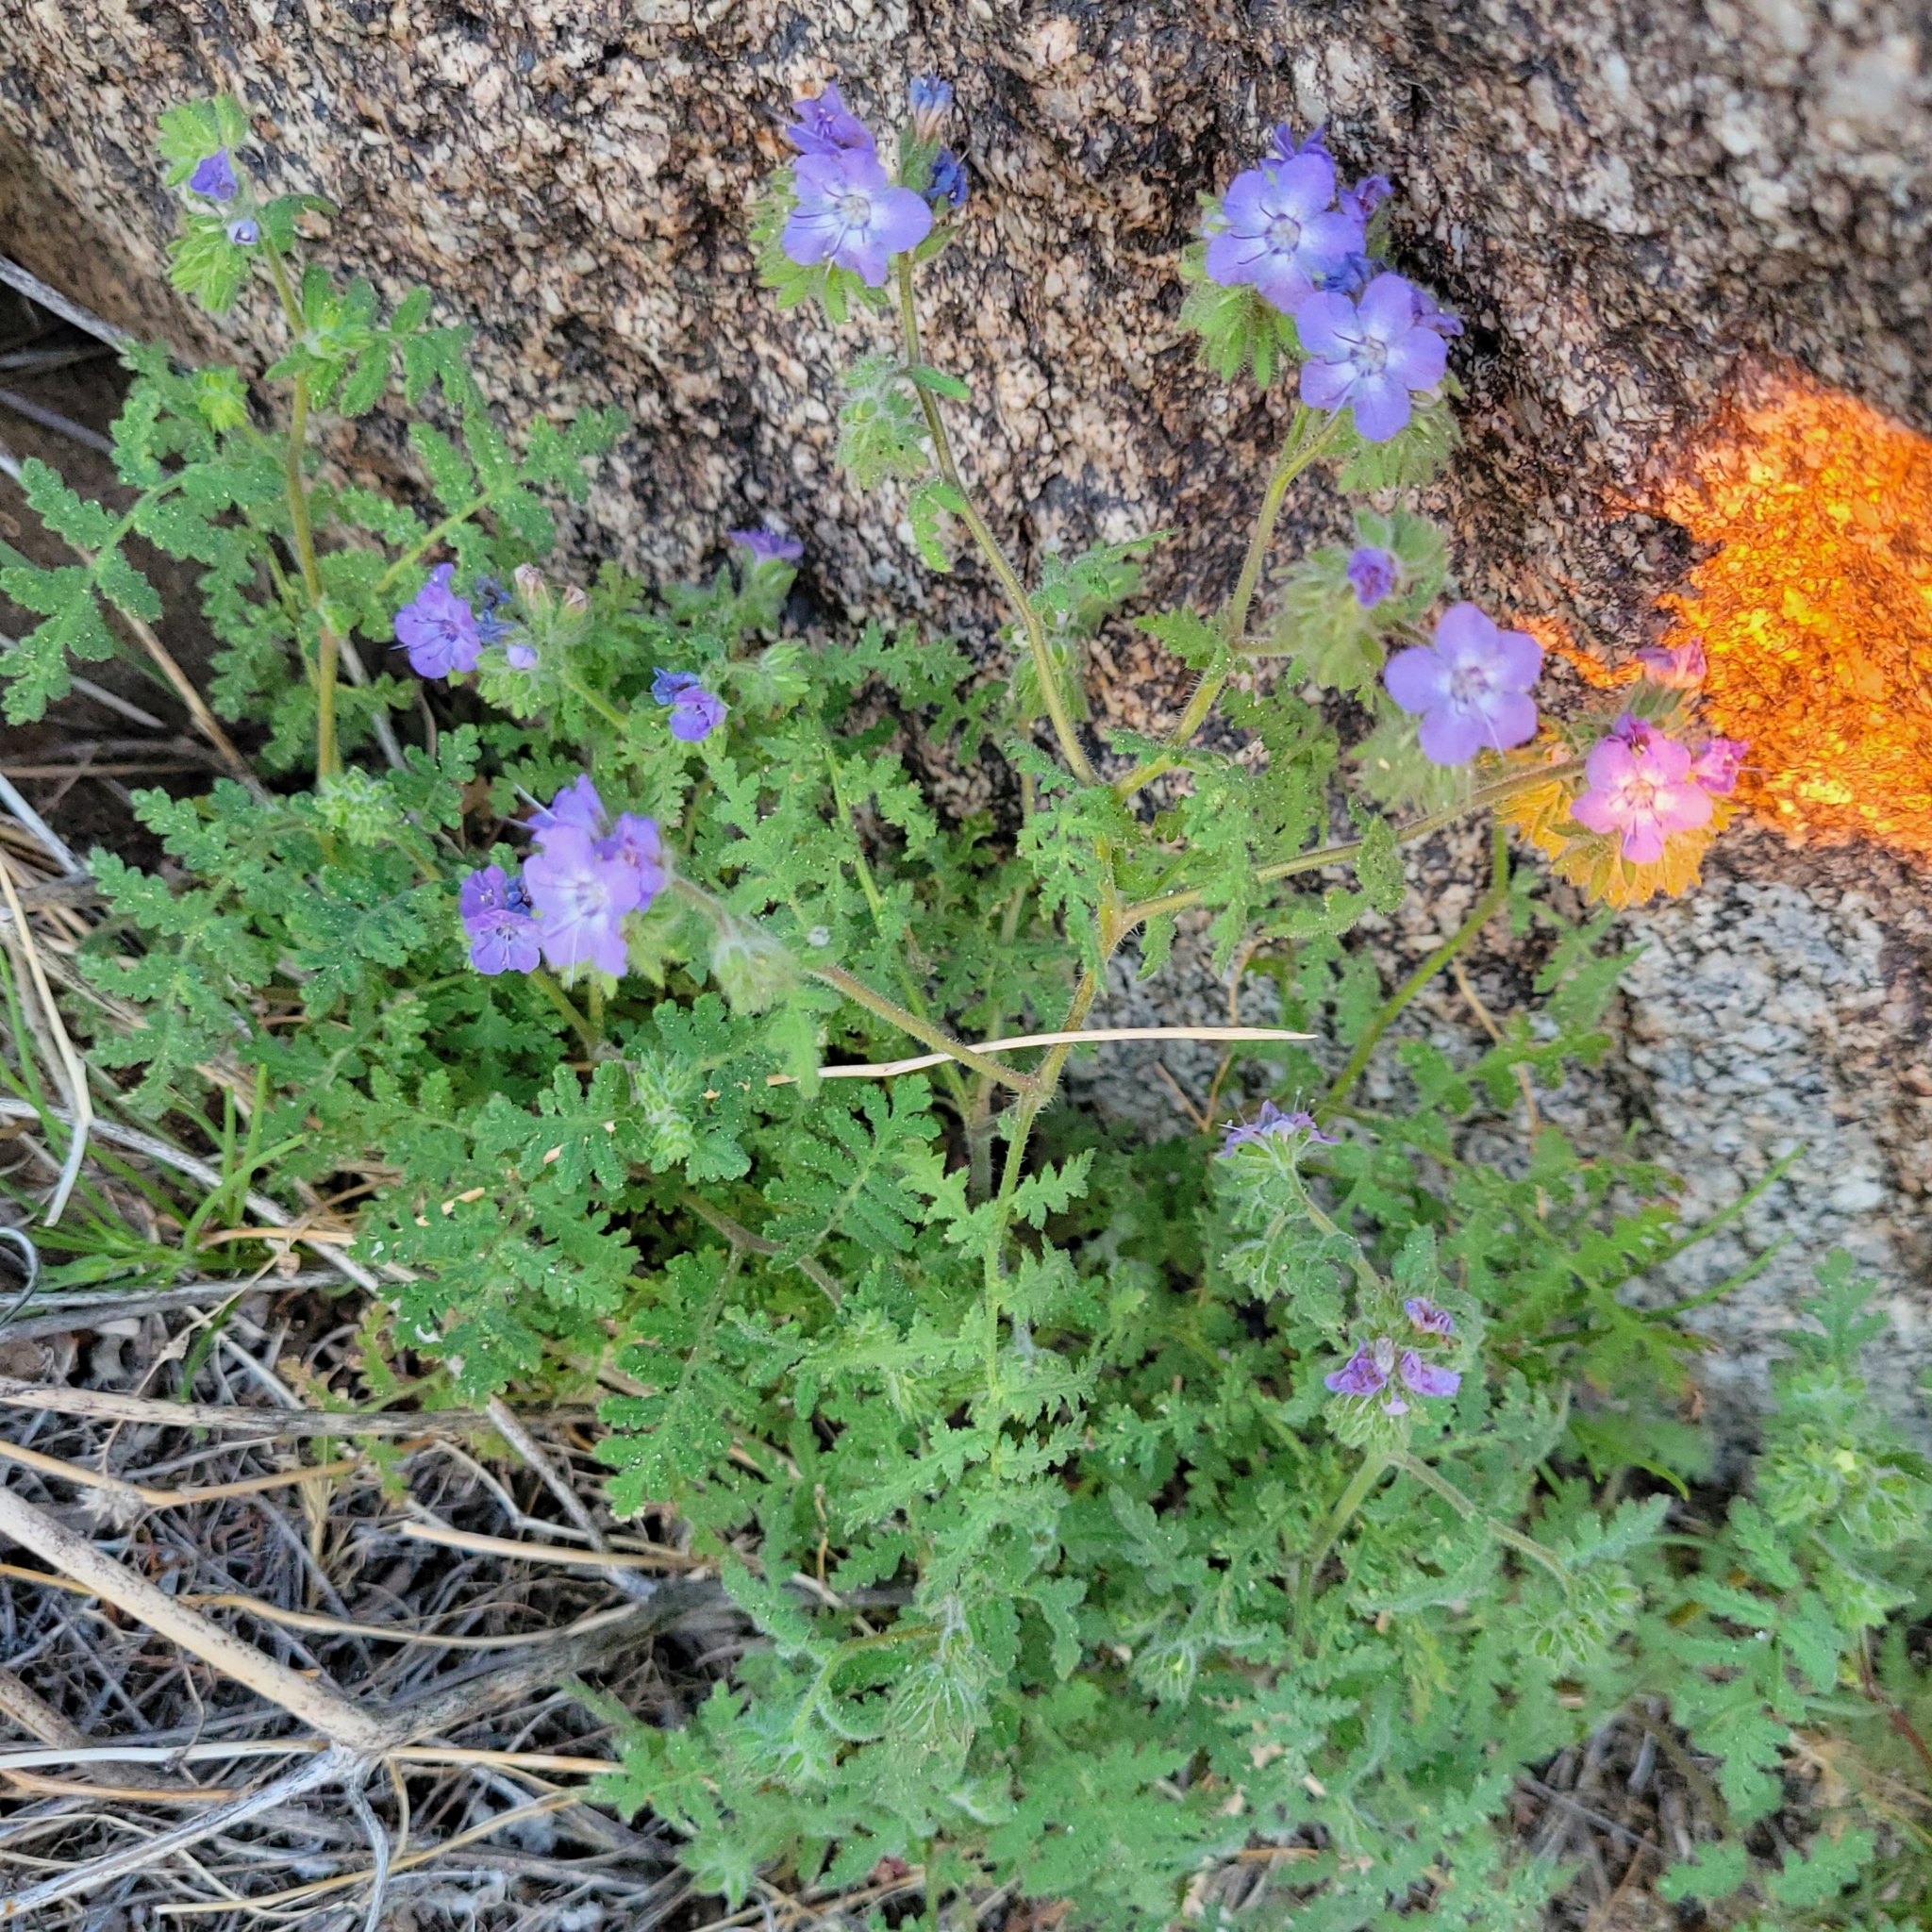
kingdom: Plantae
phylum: Tracheophyta
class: Magnoliopsida
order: Boraginales
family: Hydrophyllaceae
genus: Phacelia
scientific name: Phacelia distans
